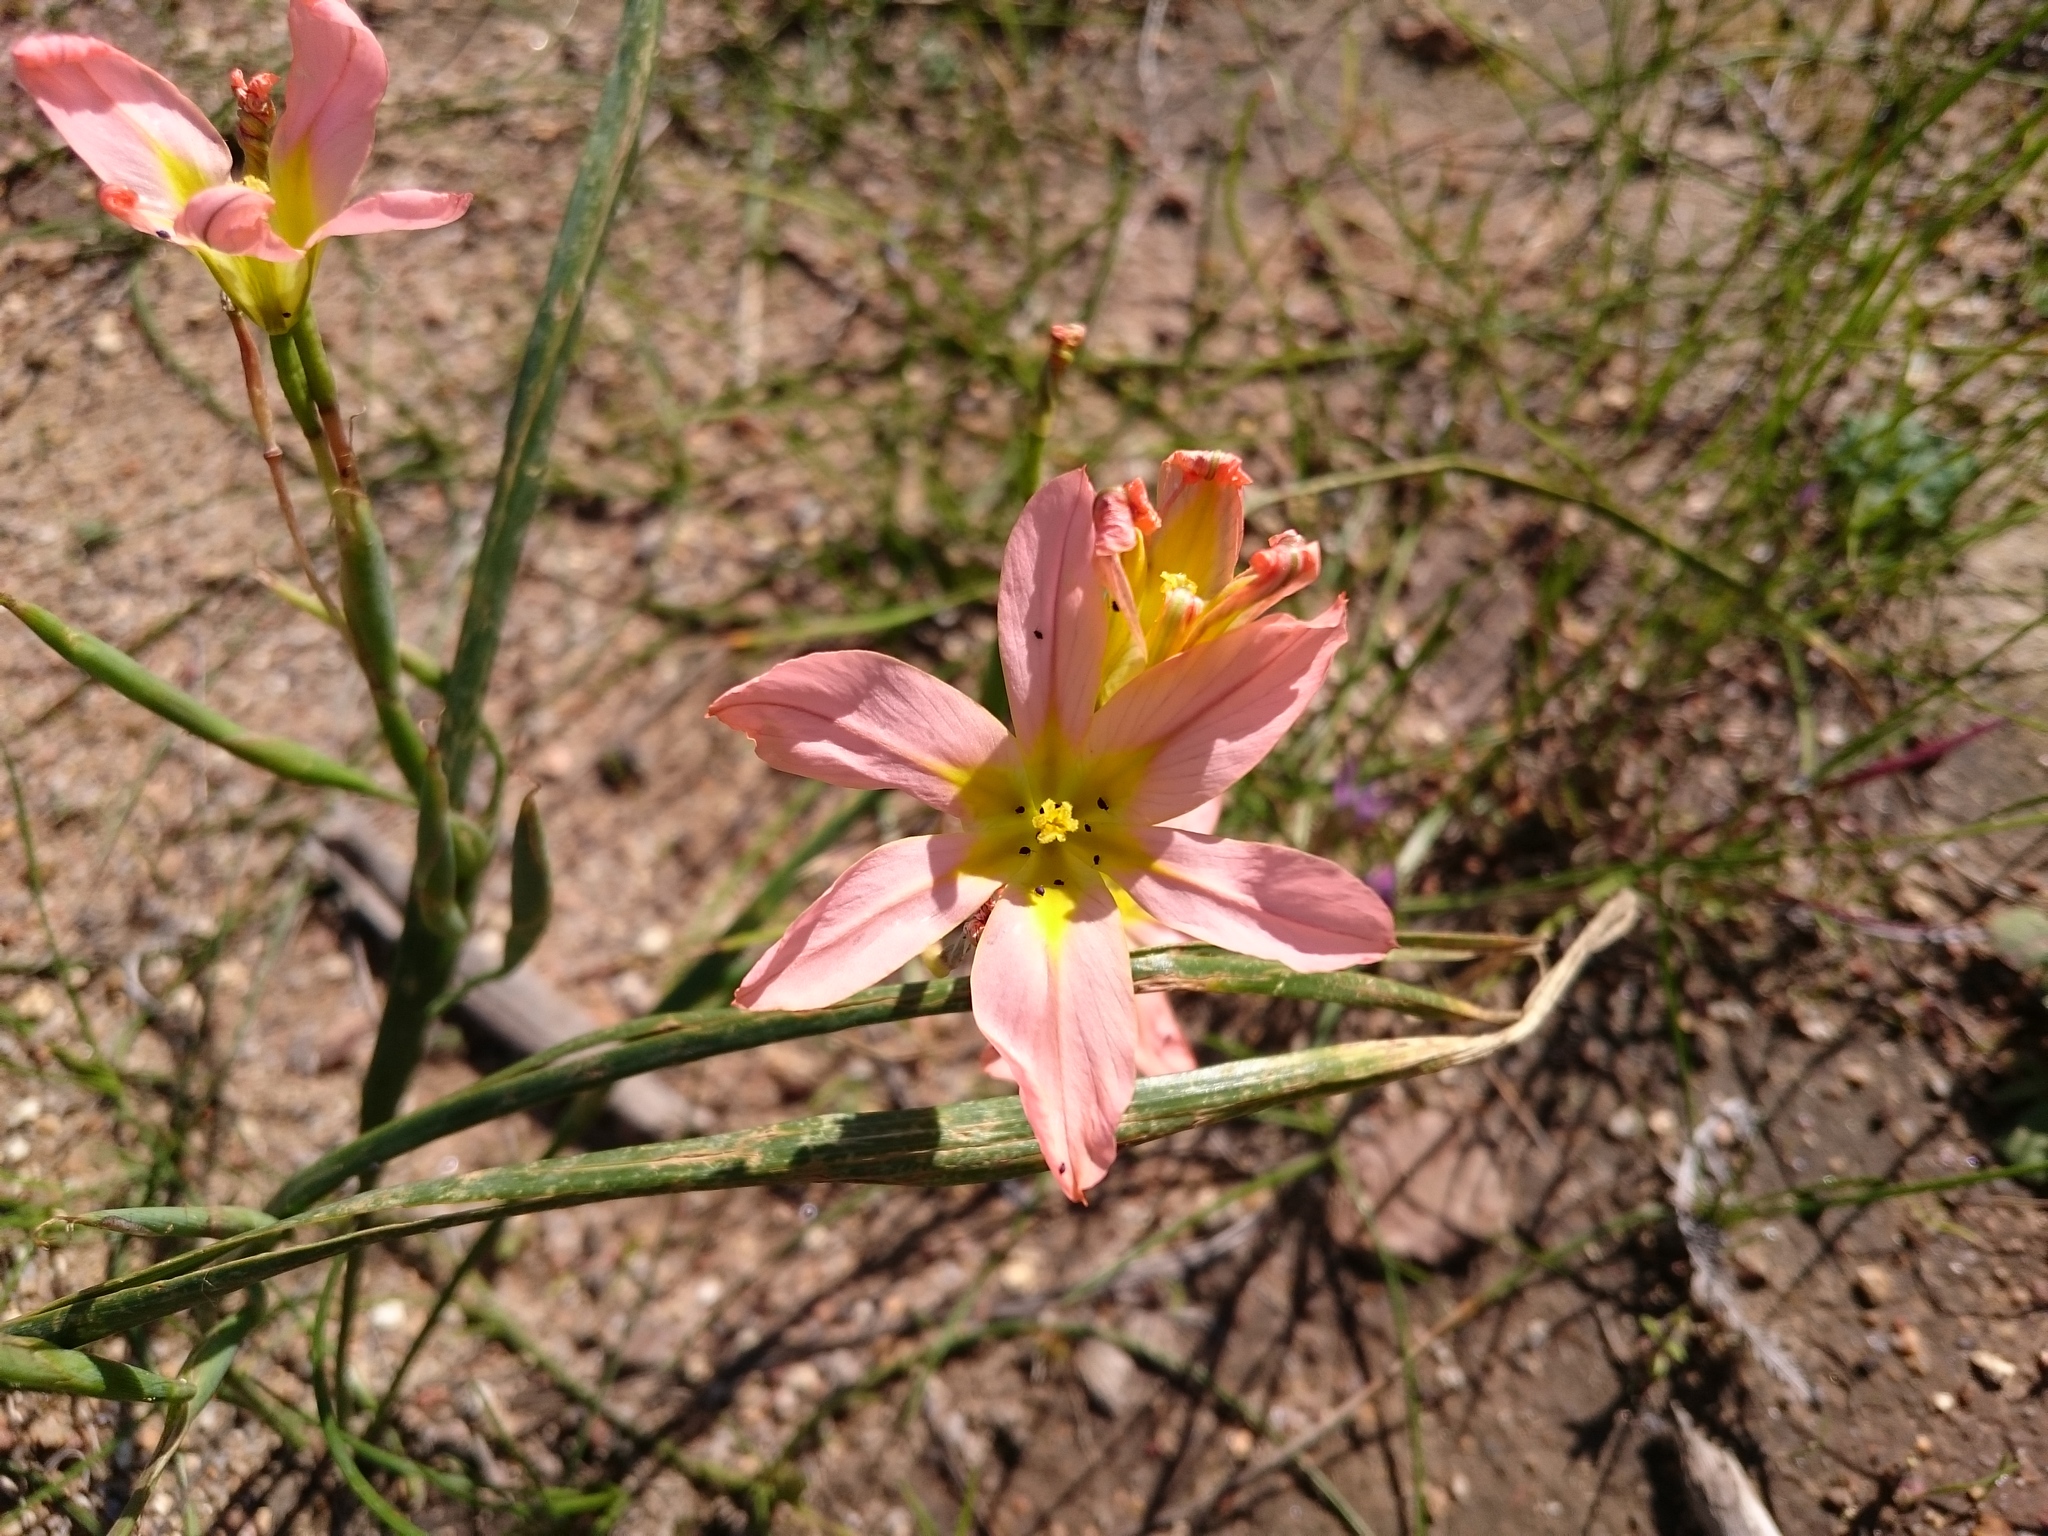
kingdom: Plantae
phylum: Tracheophyta
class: Liliopsida
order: Asparagales
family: Iridaceae
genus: Moraea
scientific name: Moraea flaccida
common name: One-leaf cape-tulip
